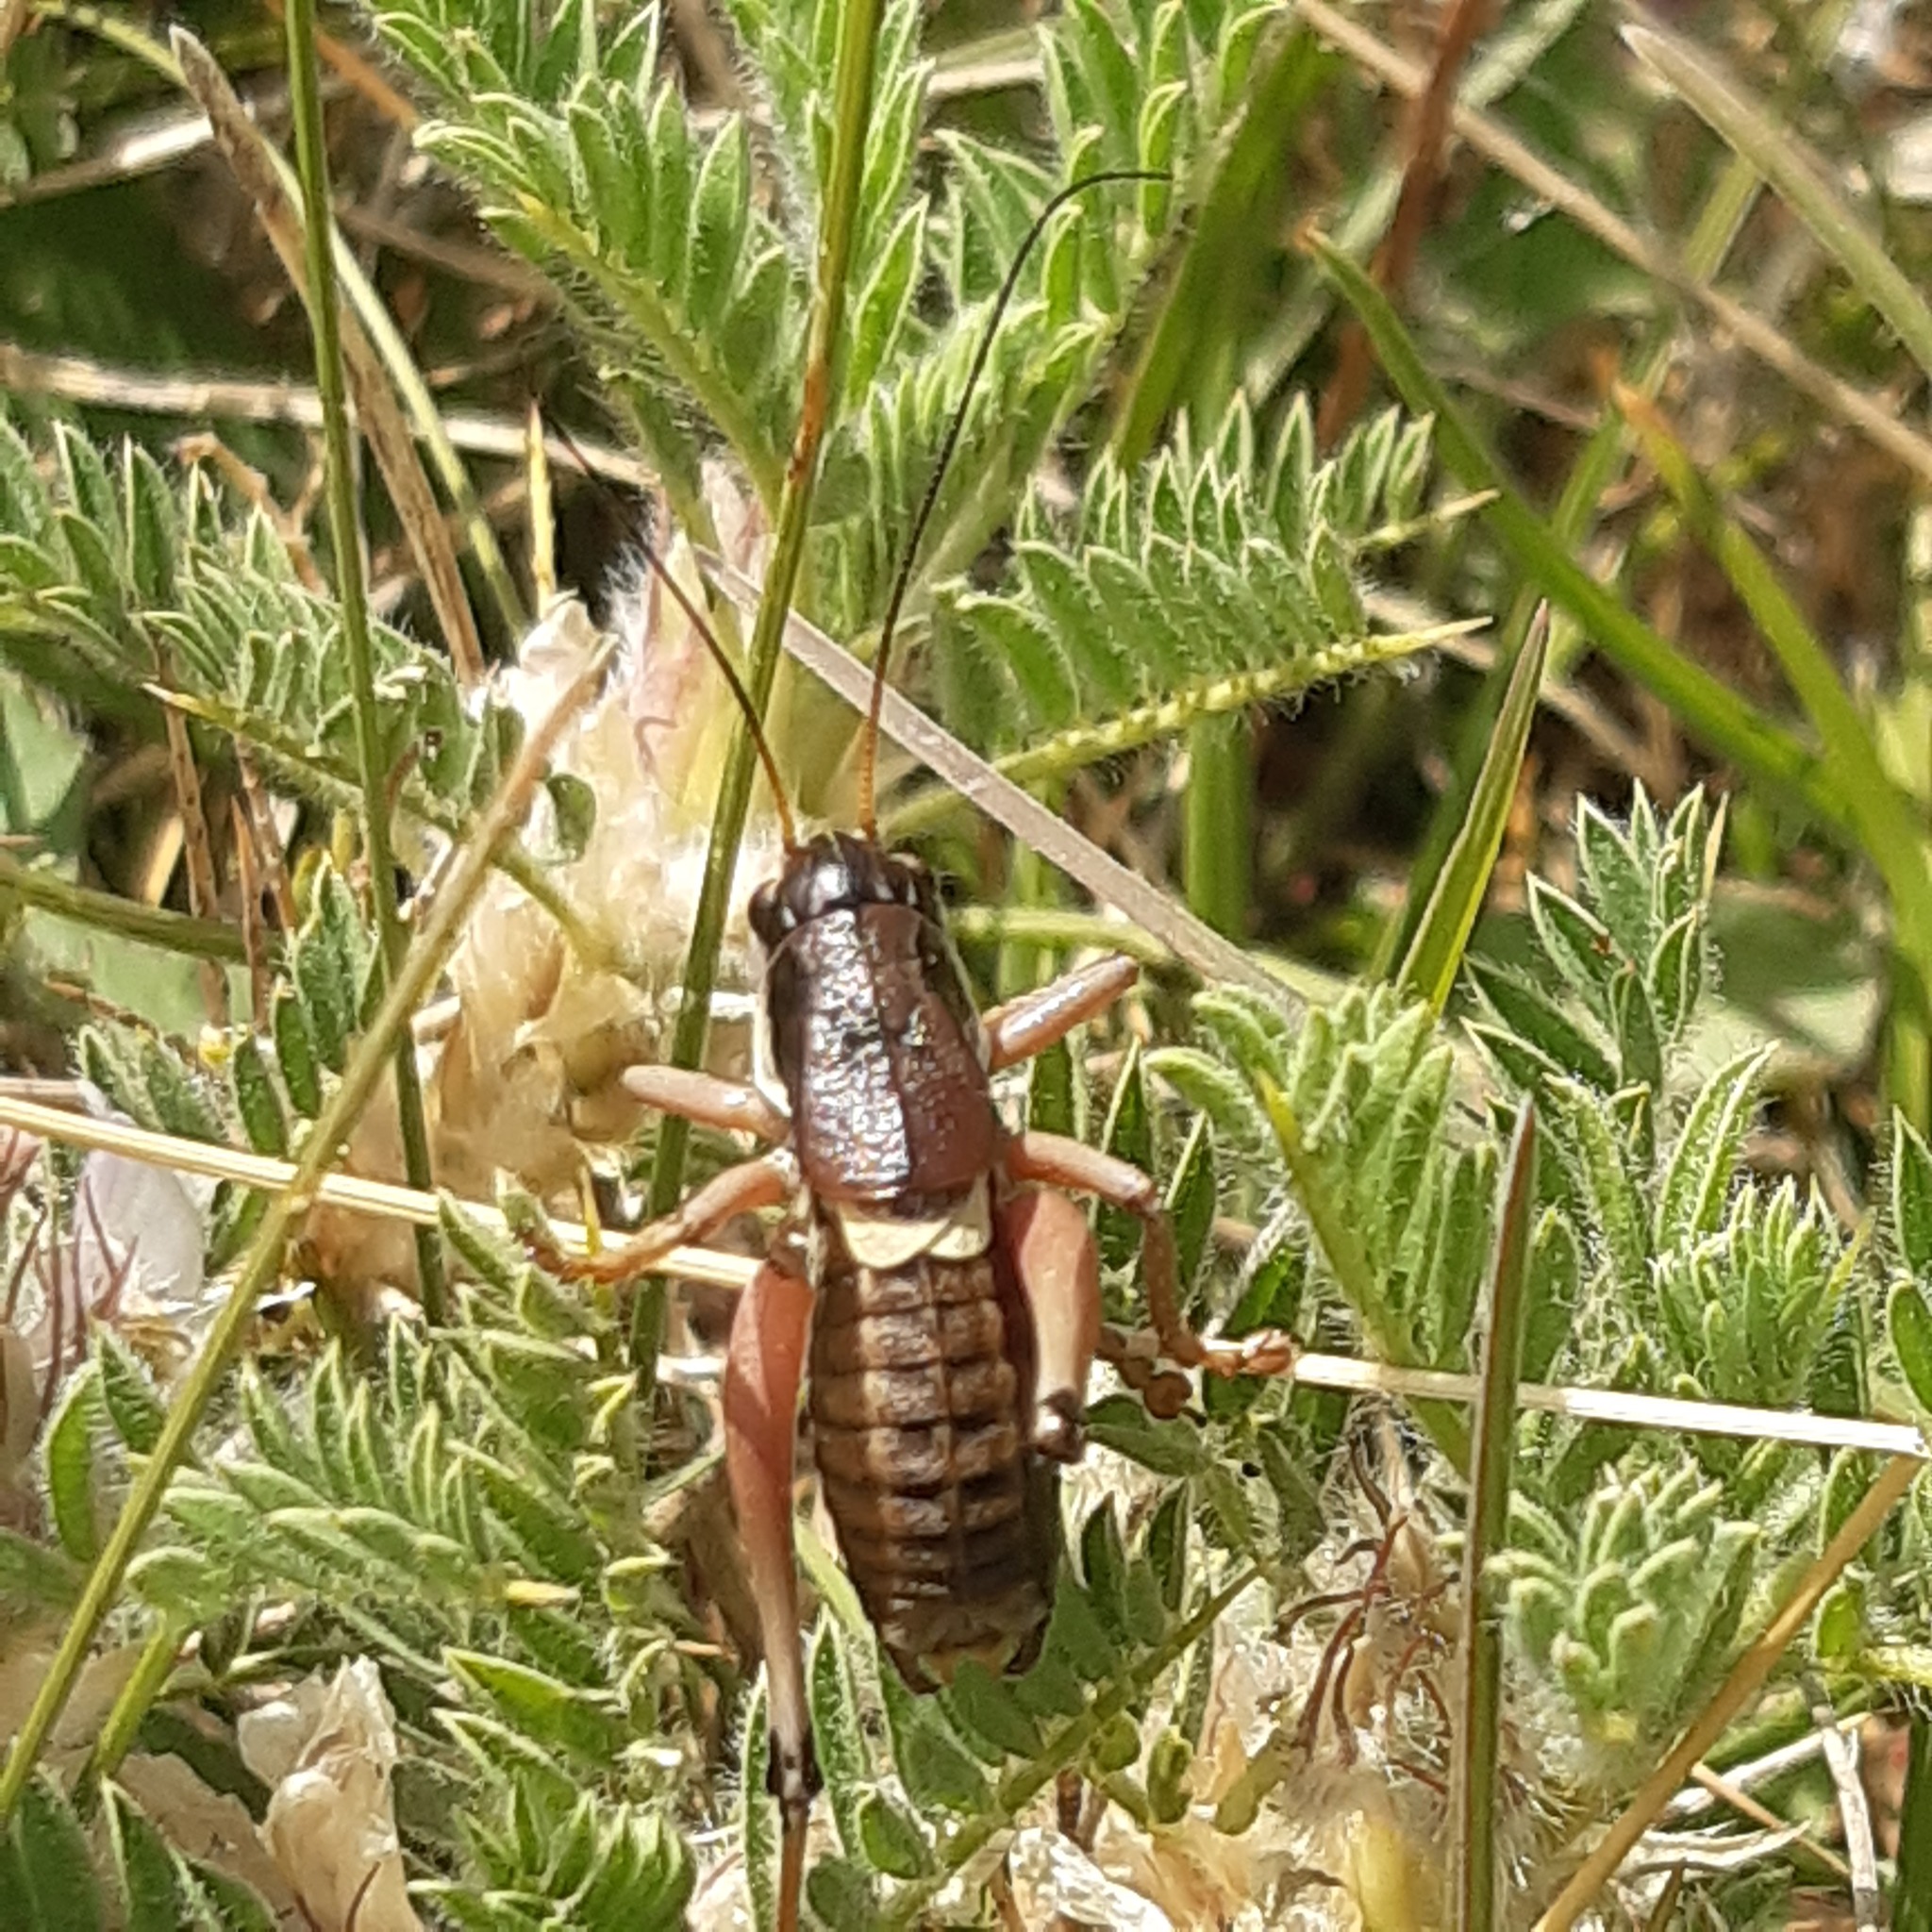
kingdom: Animalia
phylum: Arthropoda
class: Insecta
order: Orthoptera
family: Tettigoniidae
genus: Anonconotus
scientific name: Anonconotus ghilianii
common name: Ghiliani's alpine bush-cricket
